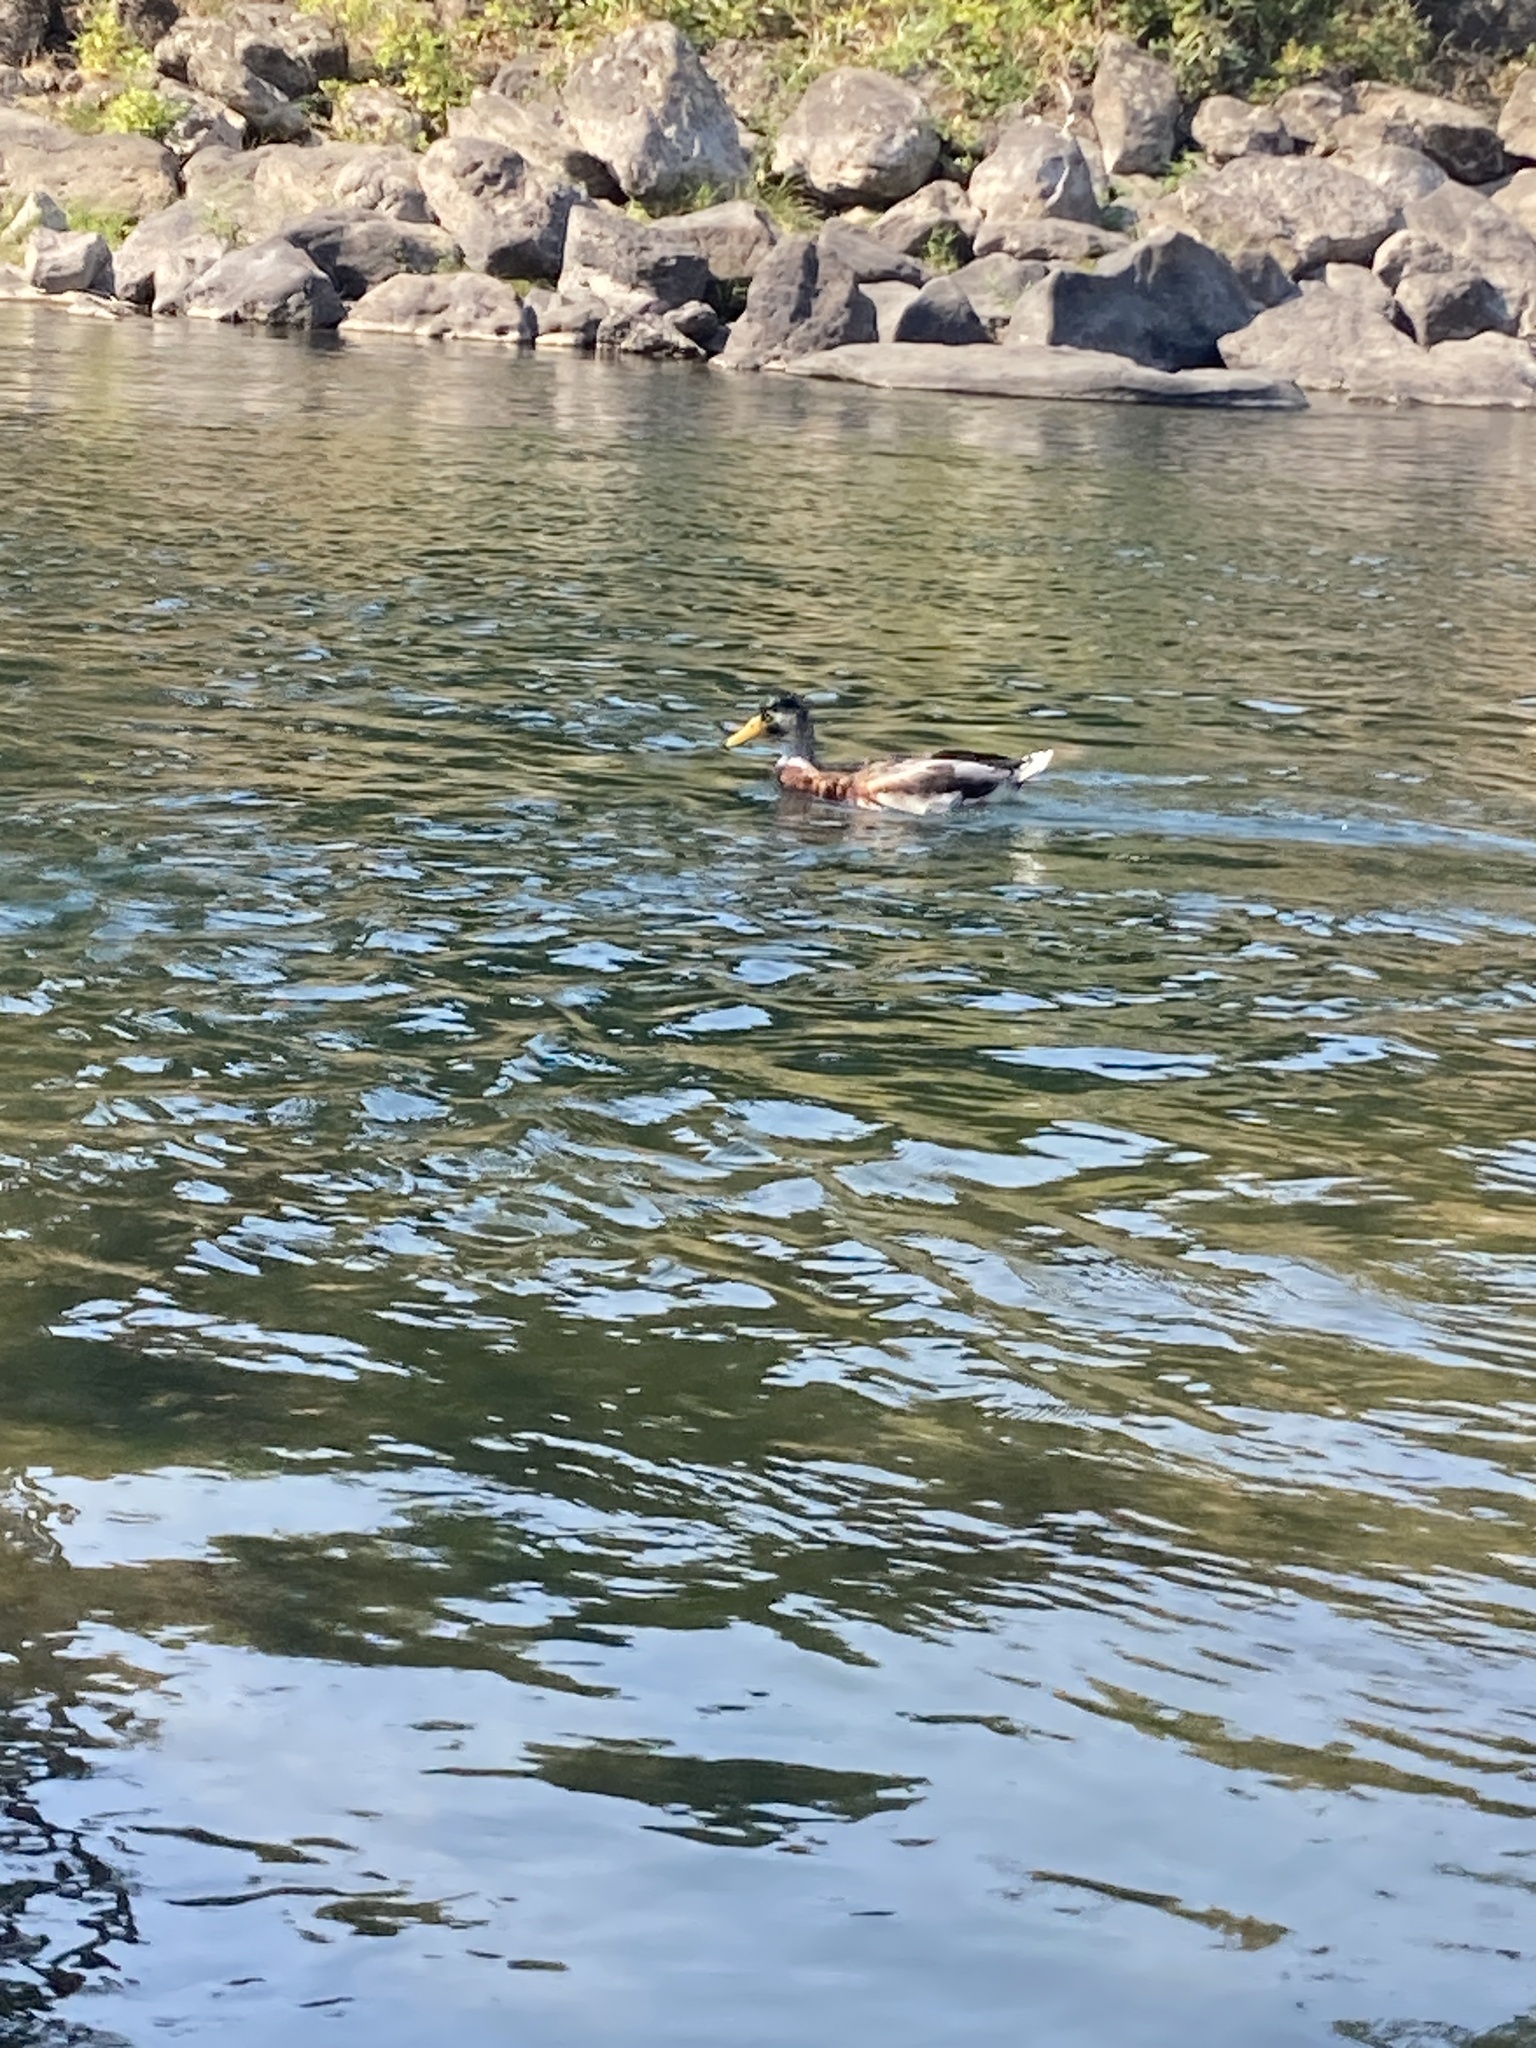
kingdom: Animalia
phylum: Chordata
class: Aves
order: Anseriformes
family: Anatidae
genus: Anas
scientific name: Anas platyrhynchos
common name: Mallard
